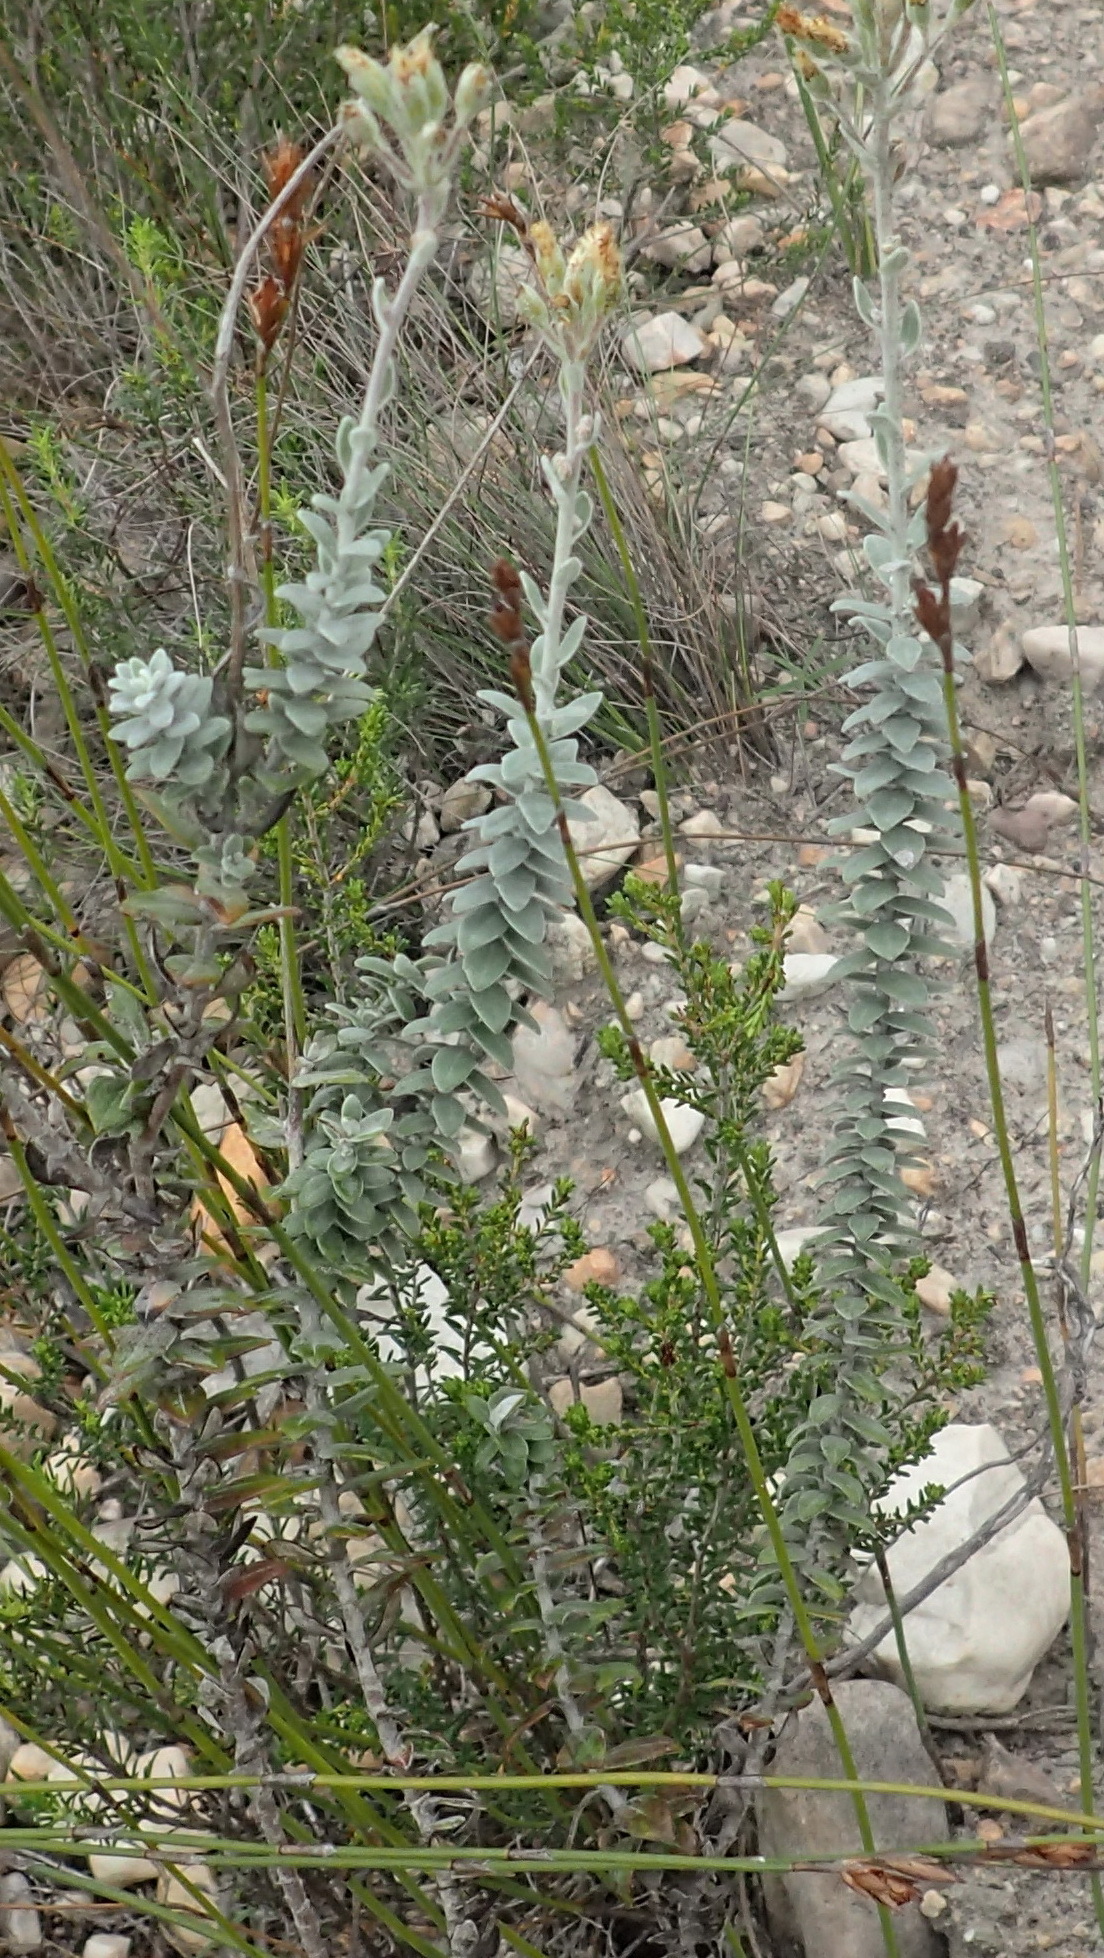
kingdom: Plantae
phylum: Tracheophyta
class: Magnoliopsida
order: Asterales
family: Asteraceae
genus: Senecio
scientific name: Senecio pauciflosculosus
